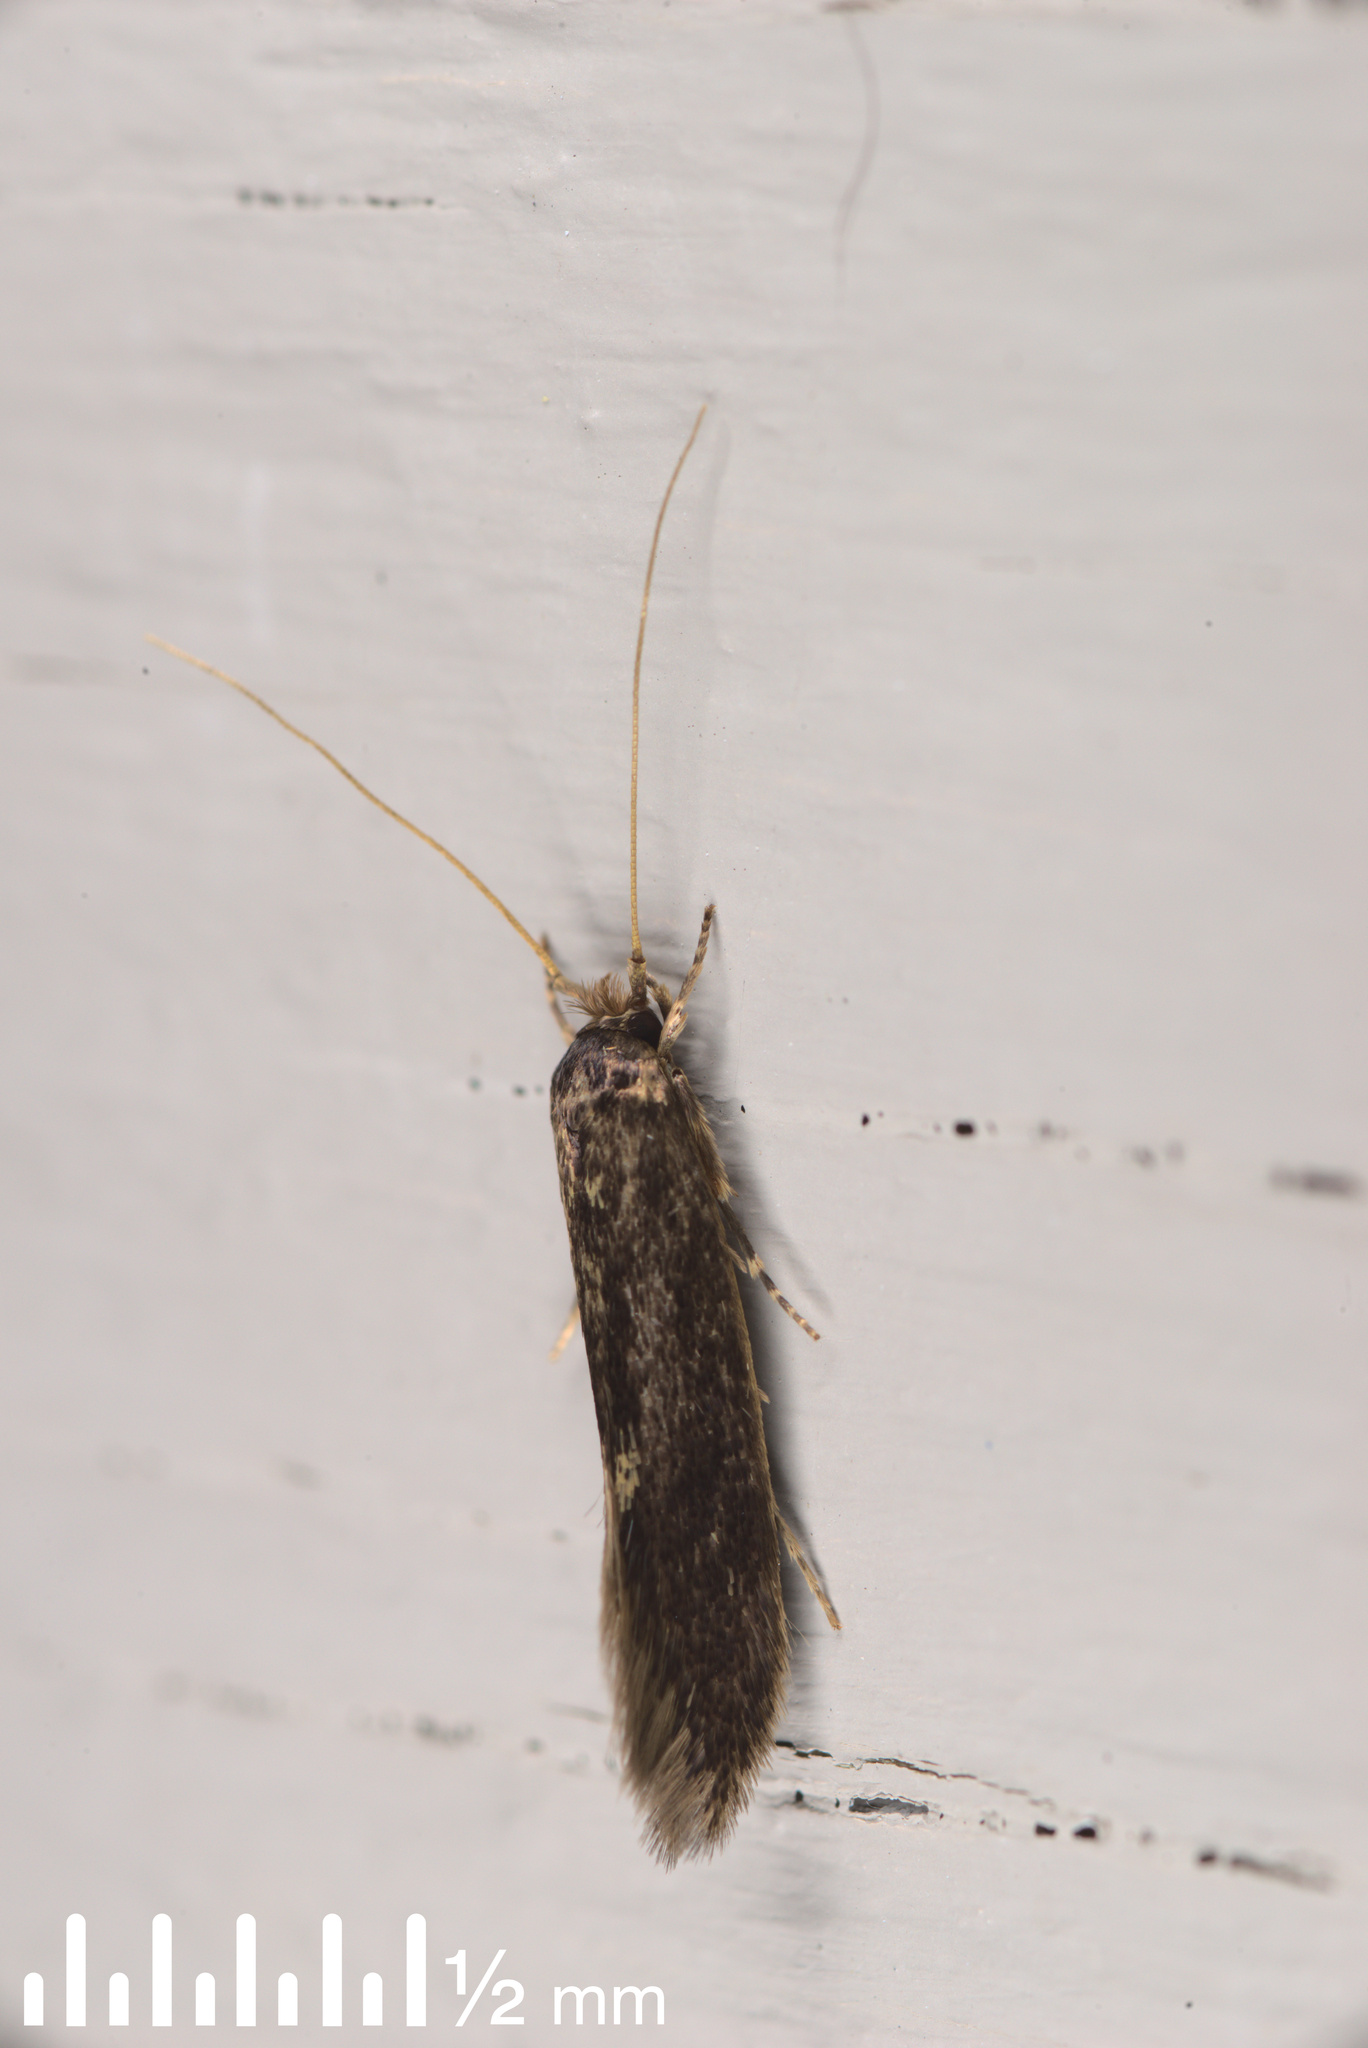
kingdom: Animalia
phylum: Arthropoda
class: Insecta
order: Lepidoptera
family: Tineidae
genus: Opogona
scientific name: Opogona omoscopa
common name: Moth
